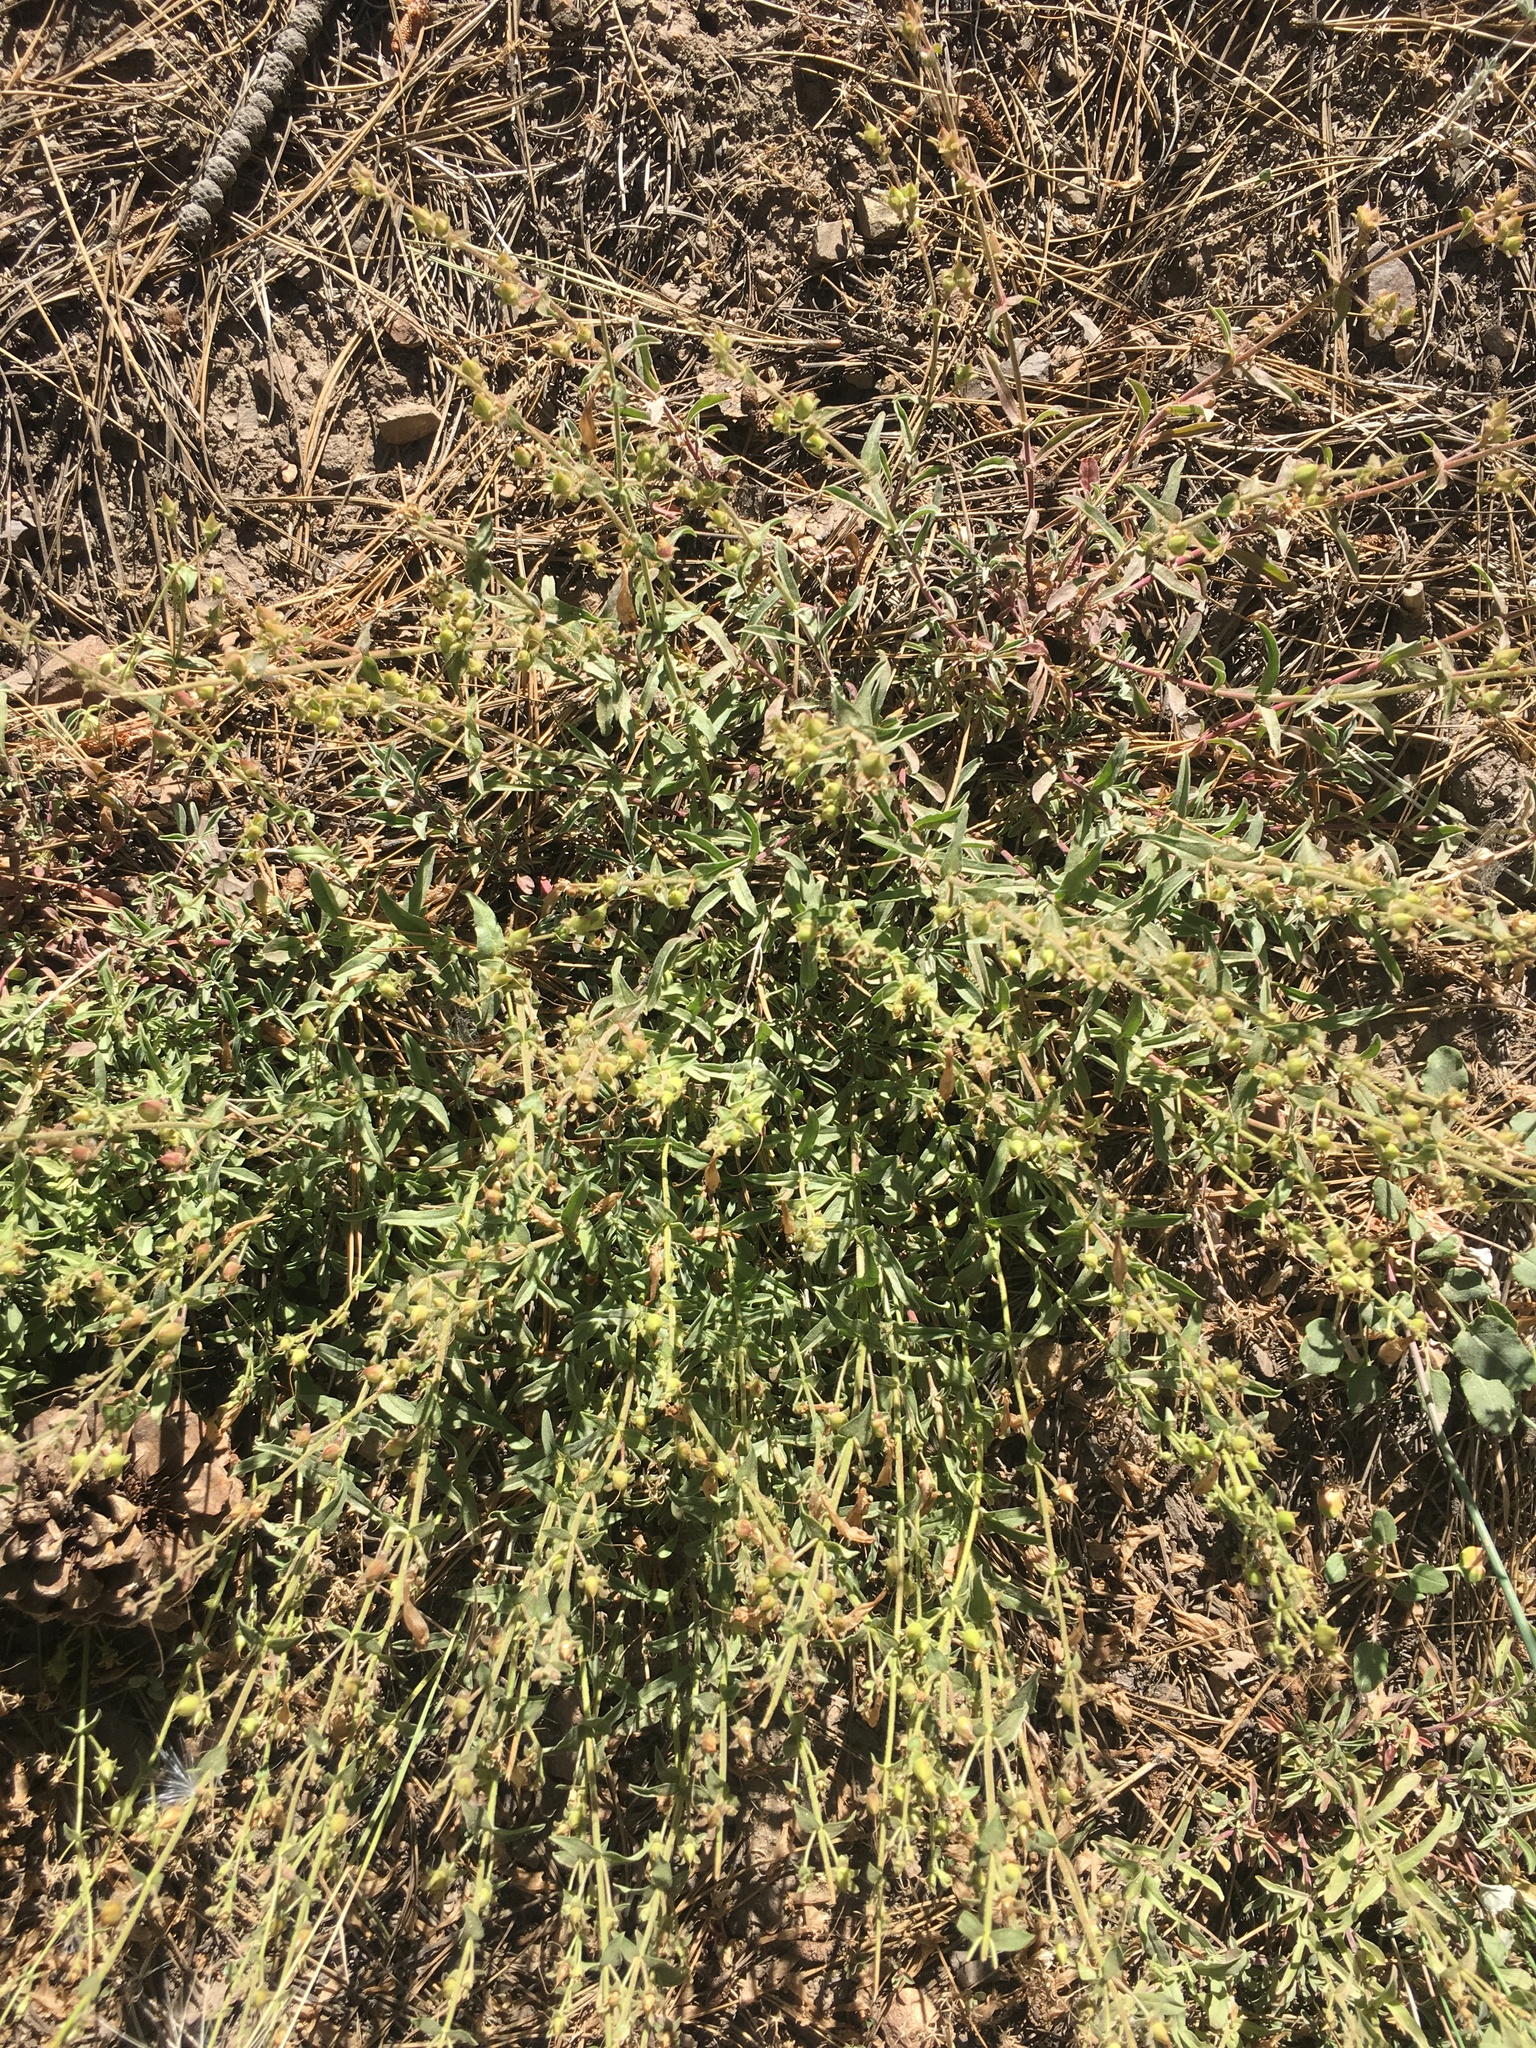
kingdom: Plantae
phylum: Tracheophyta
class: Magnoliopsida
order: Lamiales
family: Plantaginaceae
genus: Penstemon
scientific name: Penstemon laetus
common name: Gay penstemon
